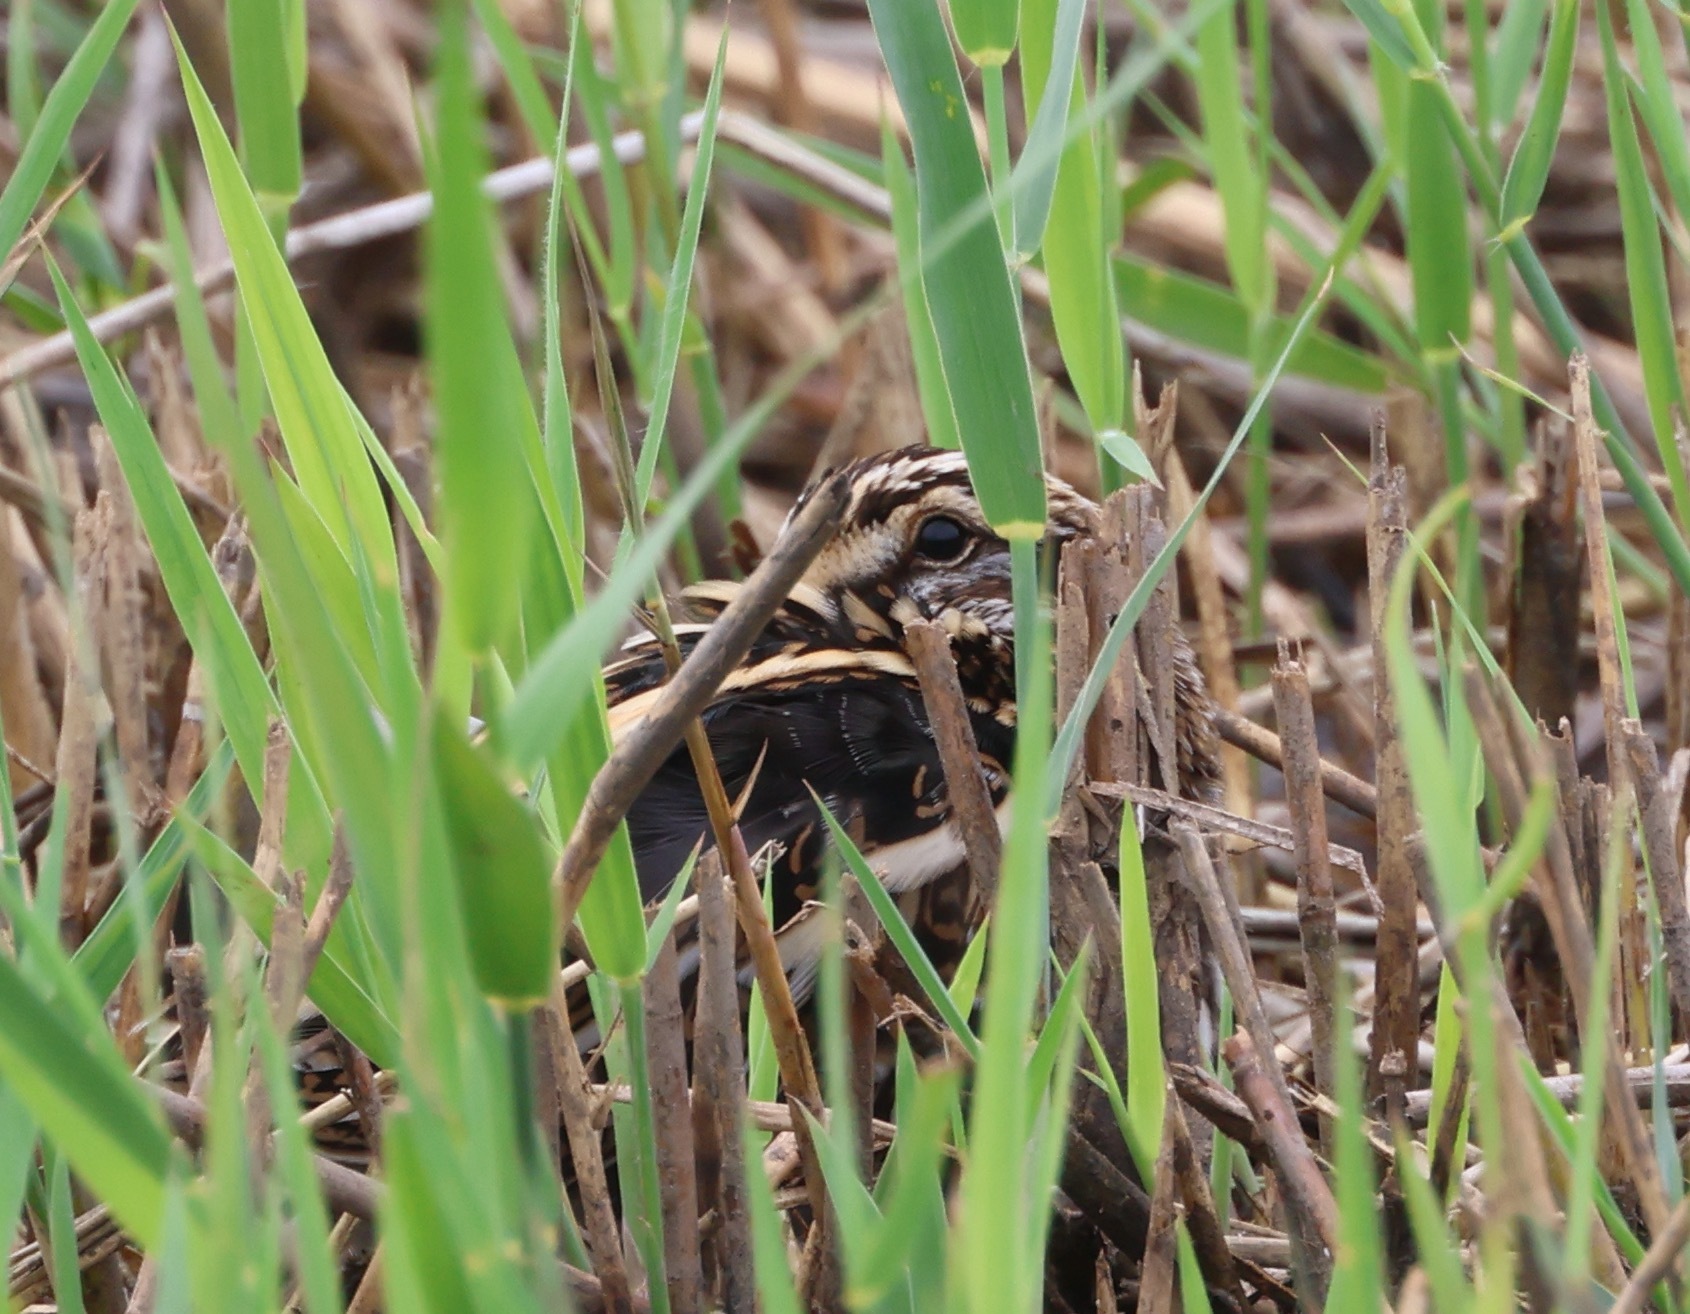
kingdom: Animalia
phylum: Chordata
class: Aves
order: Charadriiformes
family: Scolopacidae
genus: Lymnocryptes
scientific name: Lymnocryptes minimus
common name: Jack snipe
